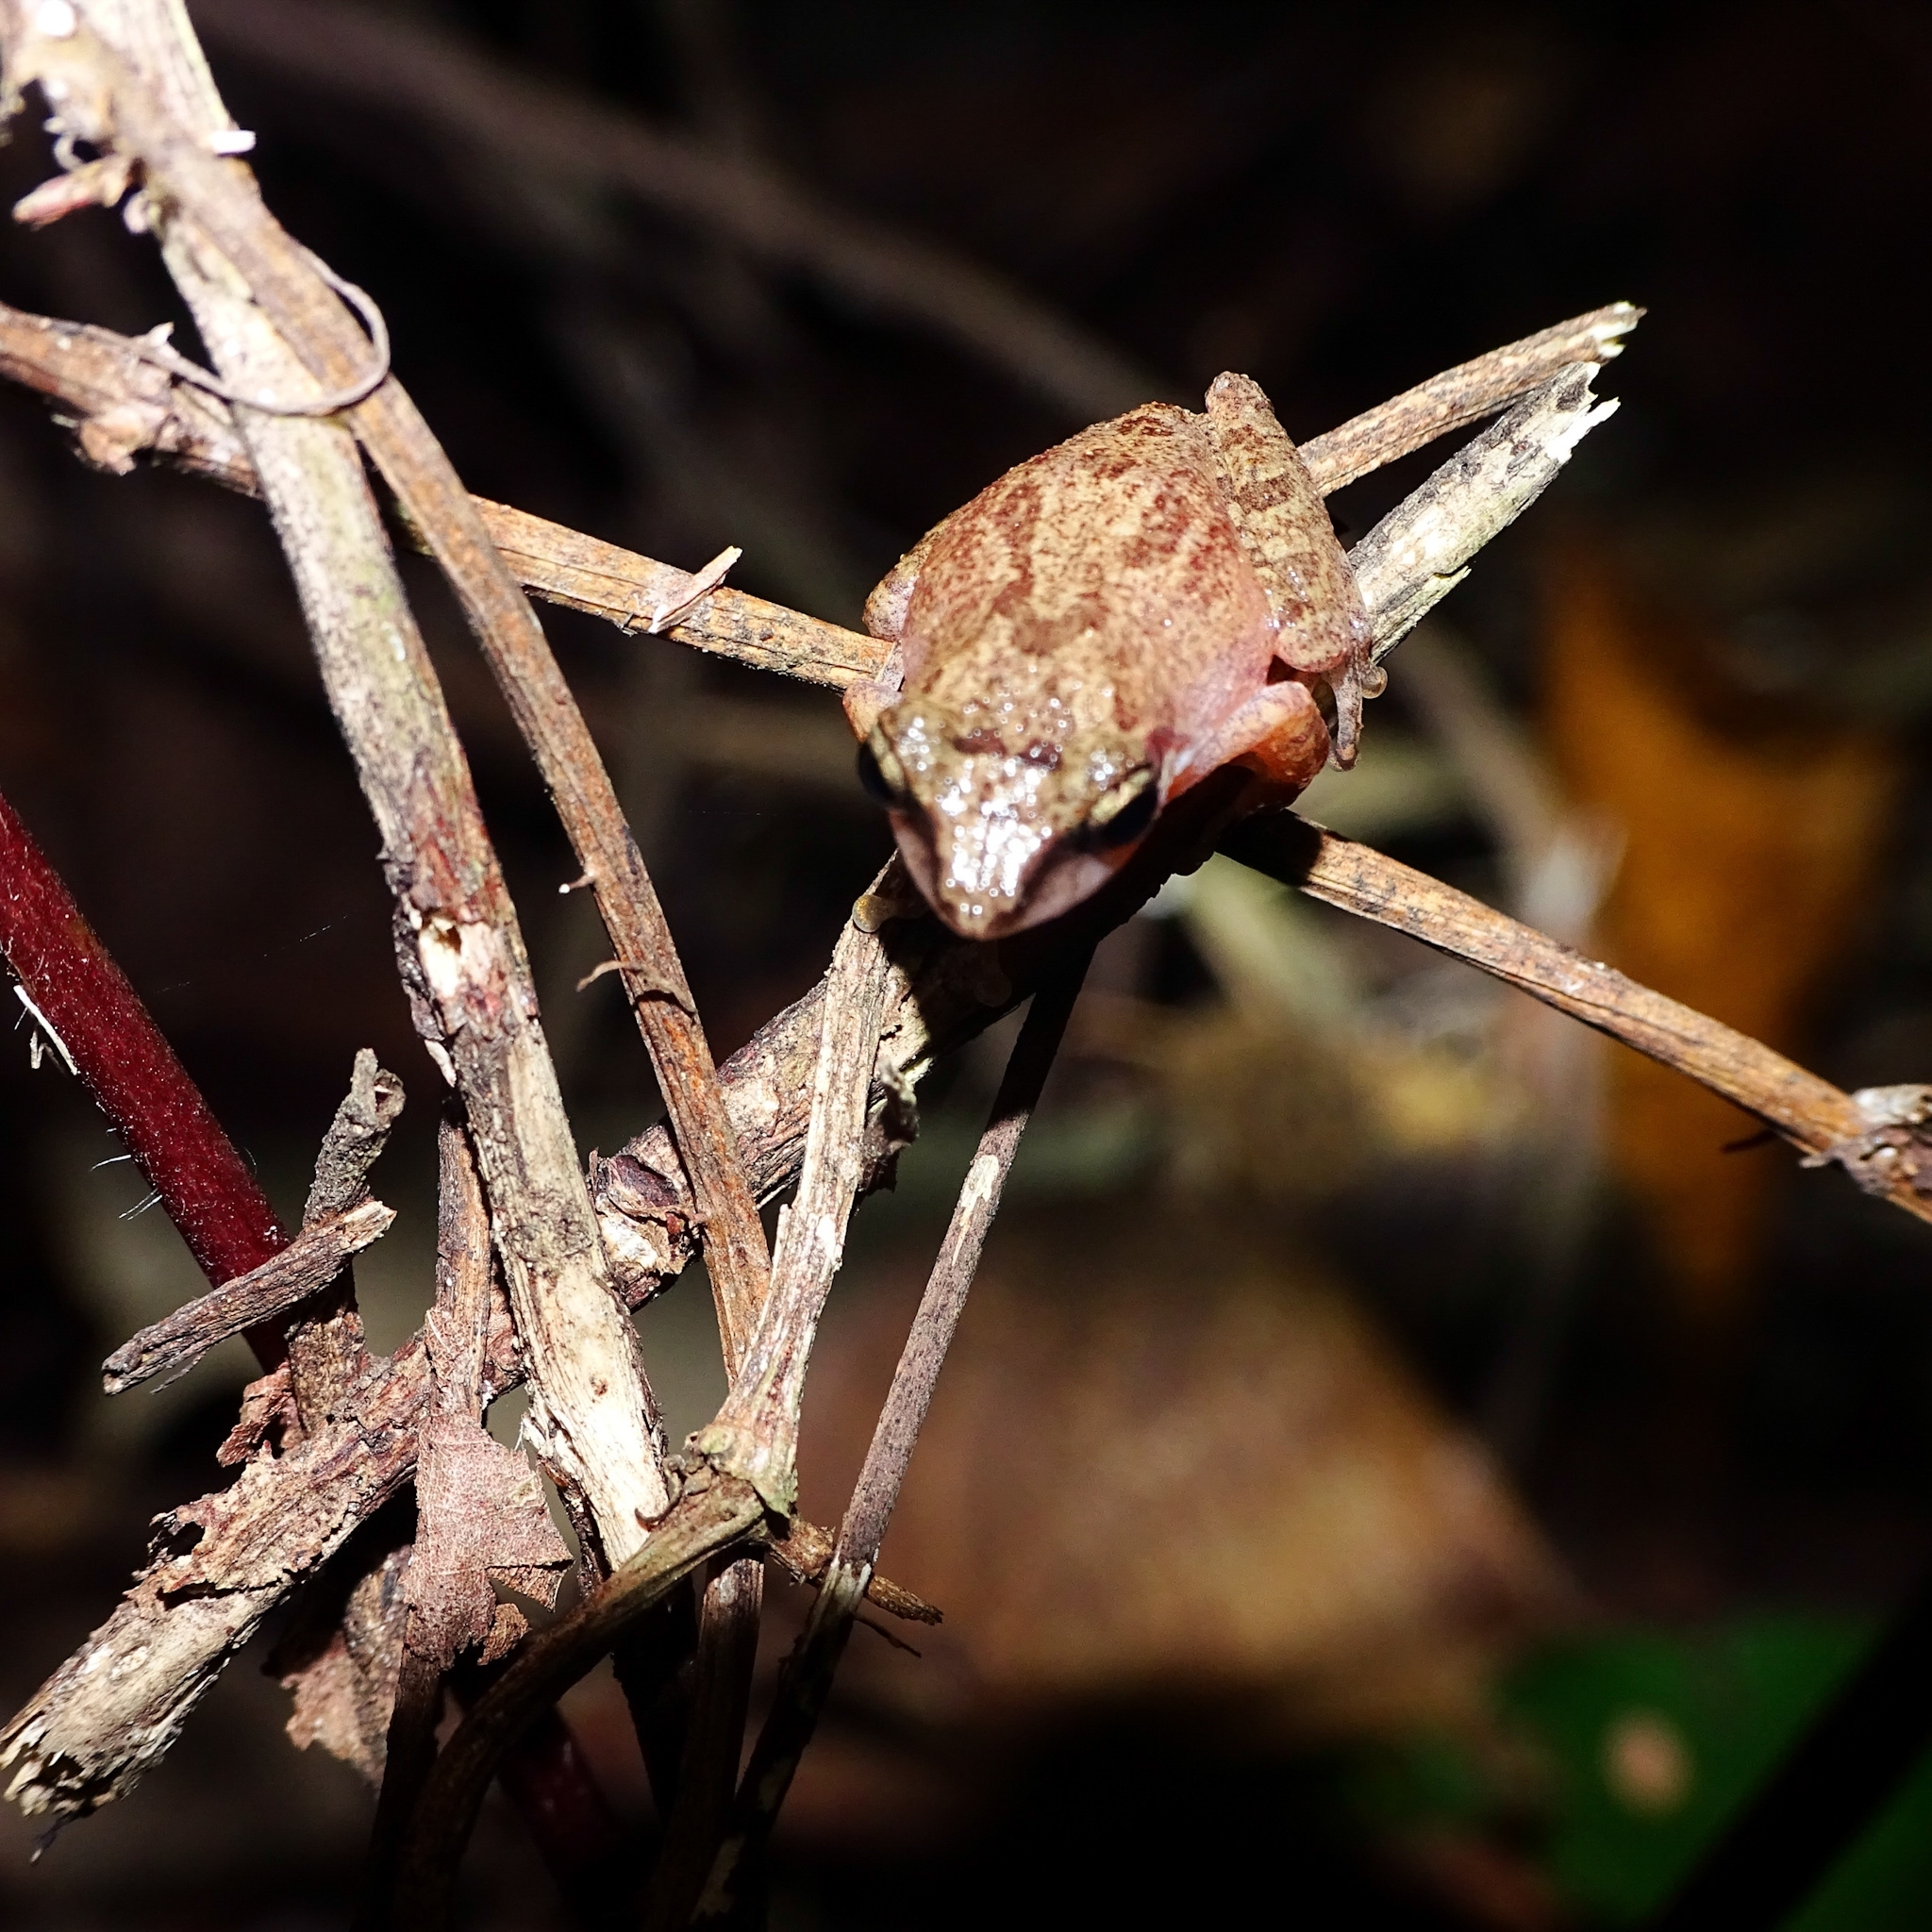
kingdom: Animalia
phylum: Chordata
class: Amphibia
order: Anura
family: Rhacophoridae
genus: Pseudophilautus
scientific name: Pseudophilautus wynaadensis
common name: Dark-eared bush frog
